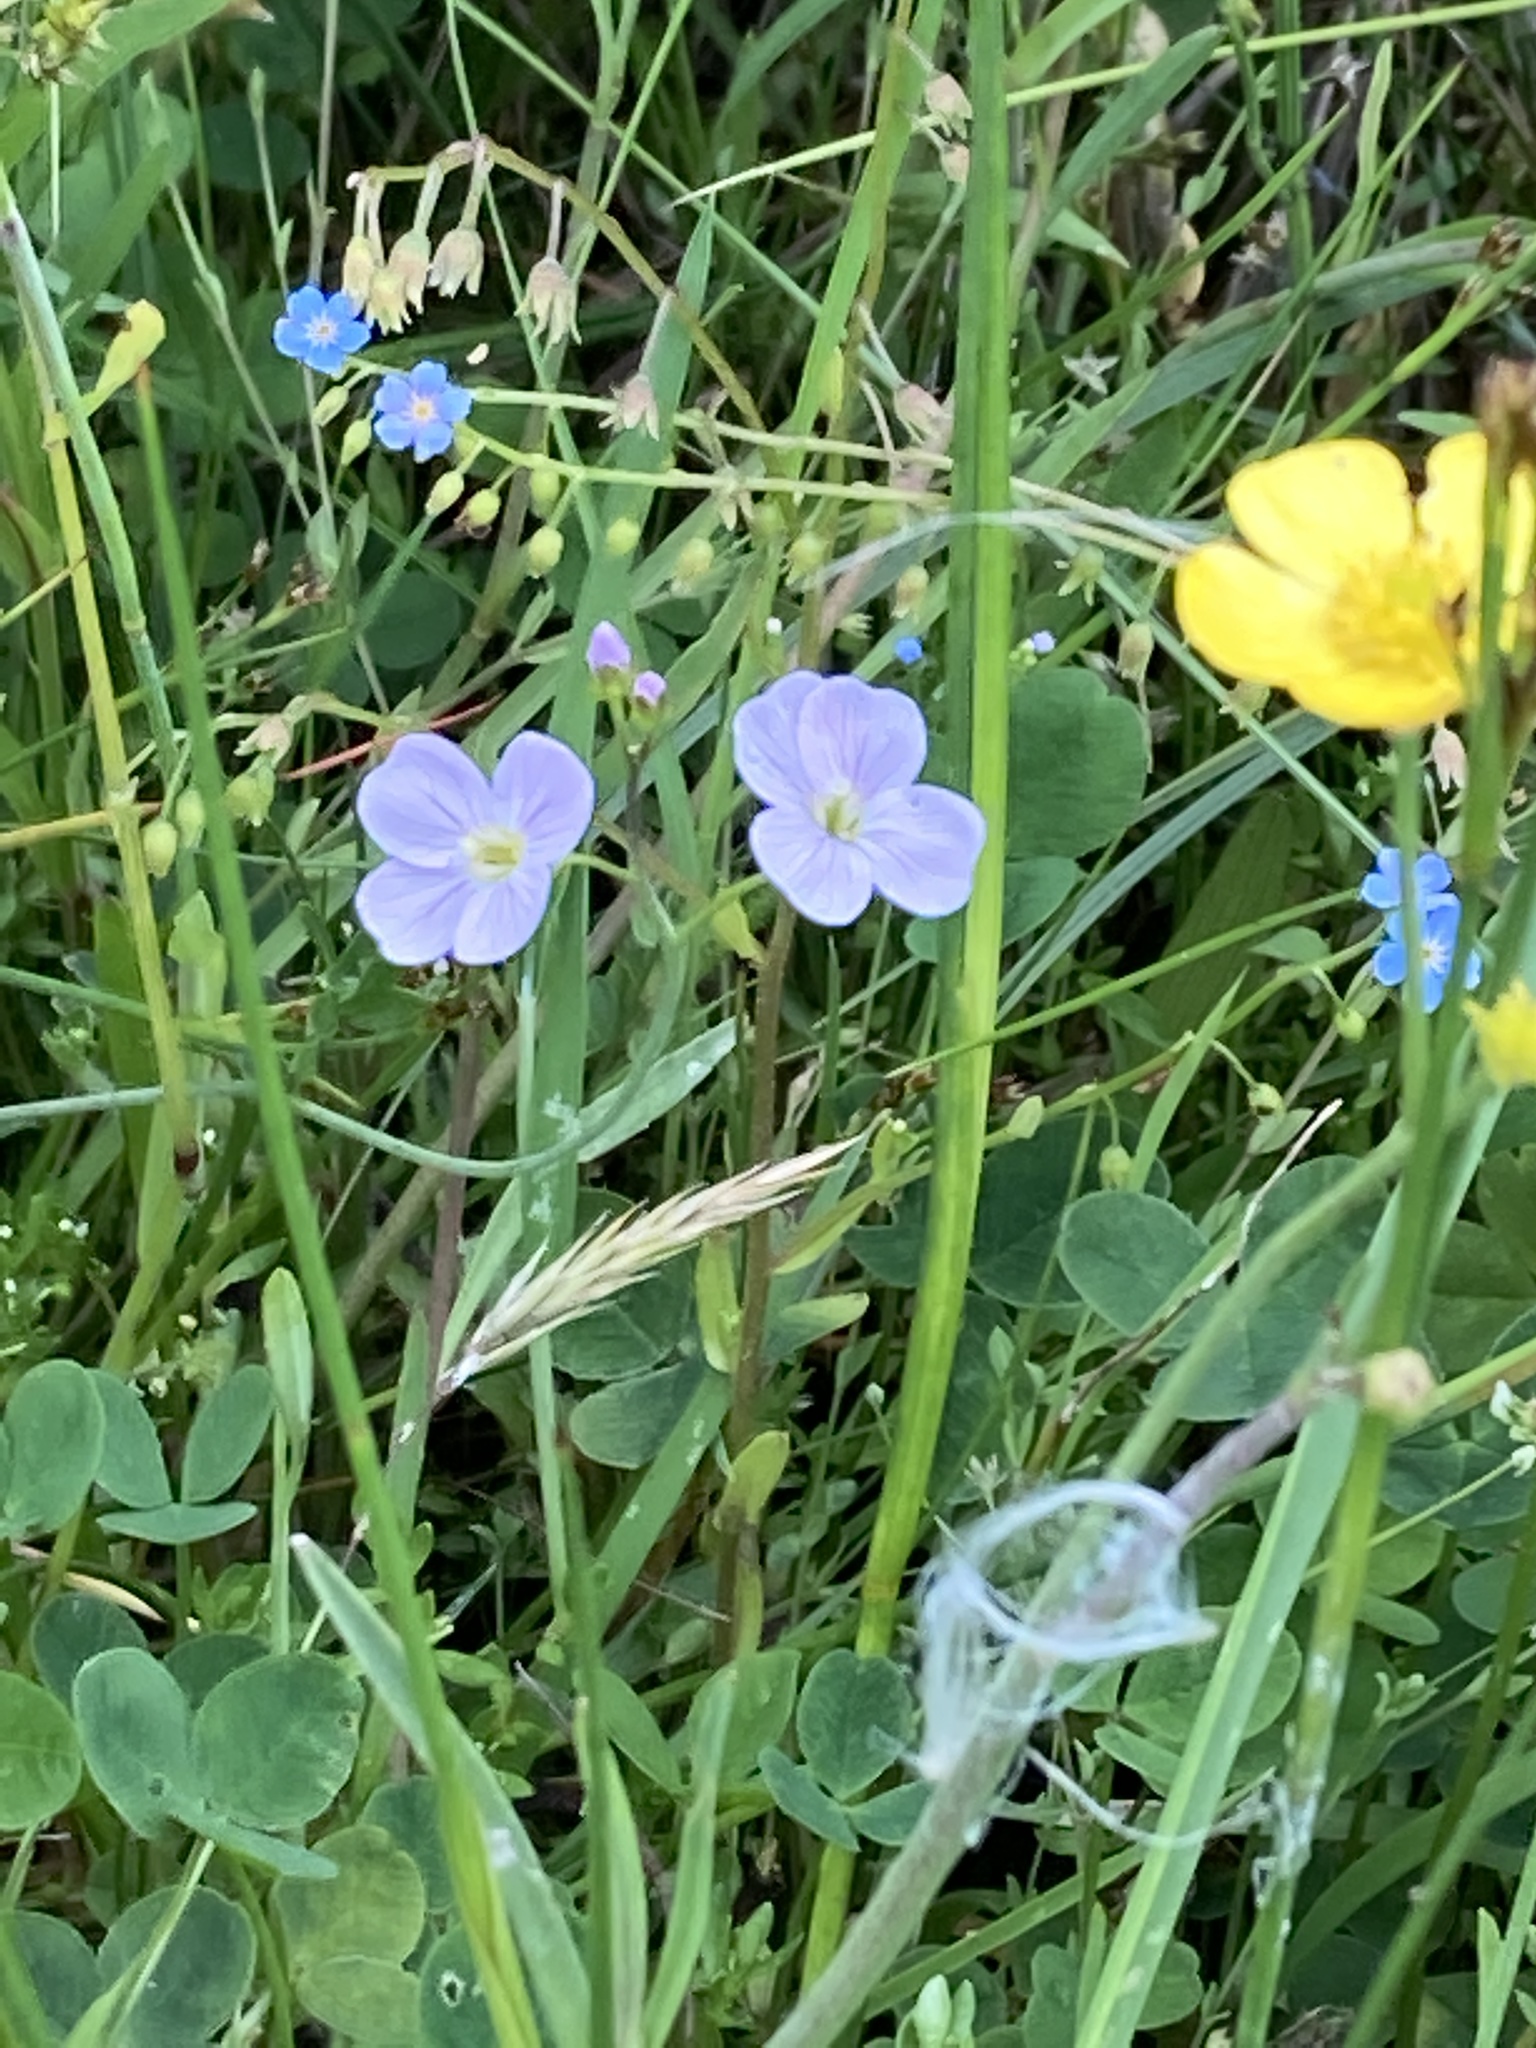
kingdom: Plantae
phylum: Tracheophyta
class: Magnoliopsida
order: Brassicales
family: Brassicaceae
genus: Cardamine
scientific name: Cardamine pratensis
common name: Cuckoo flower
